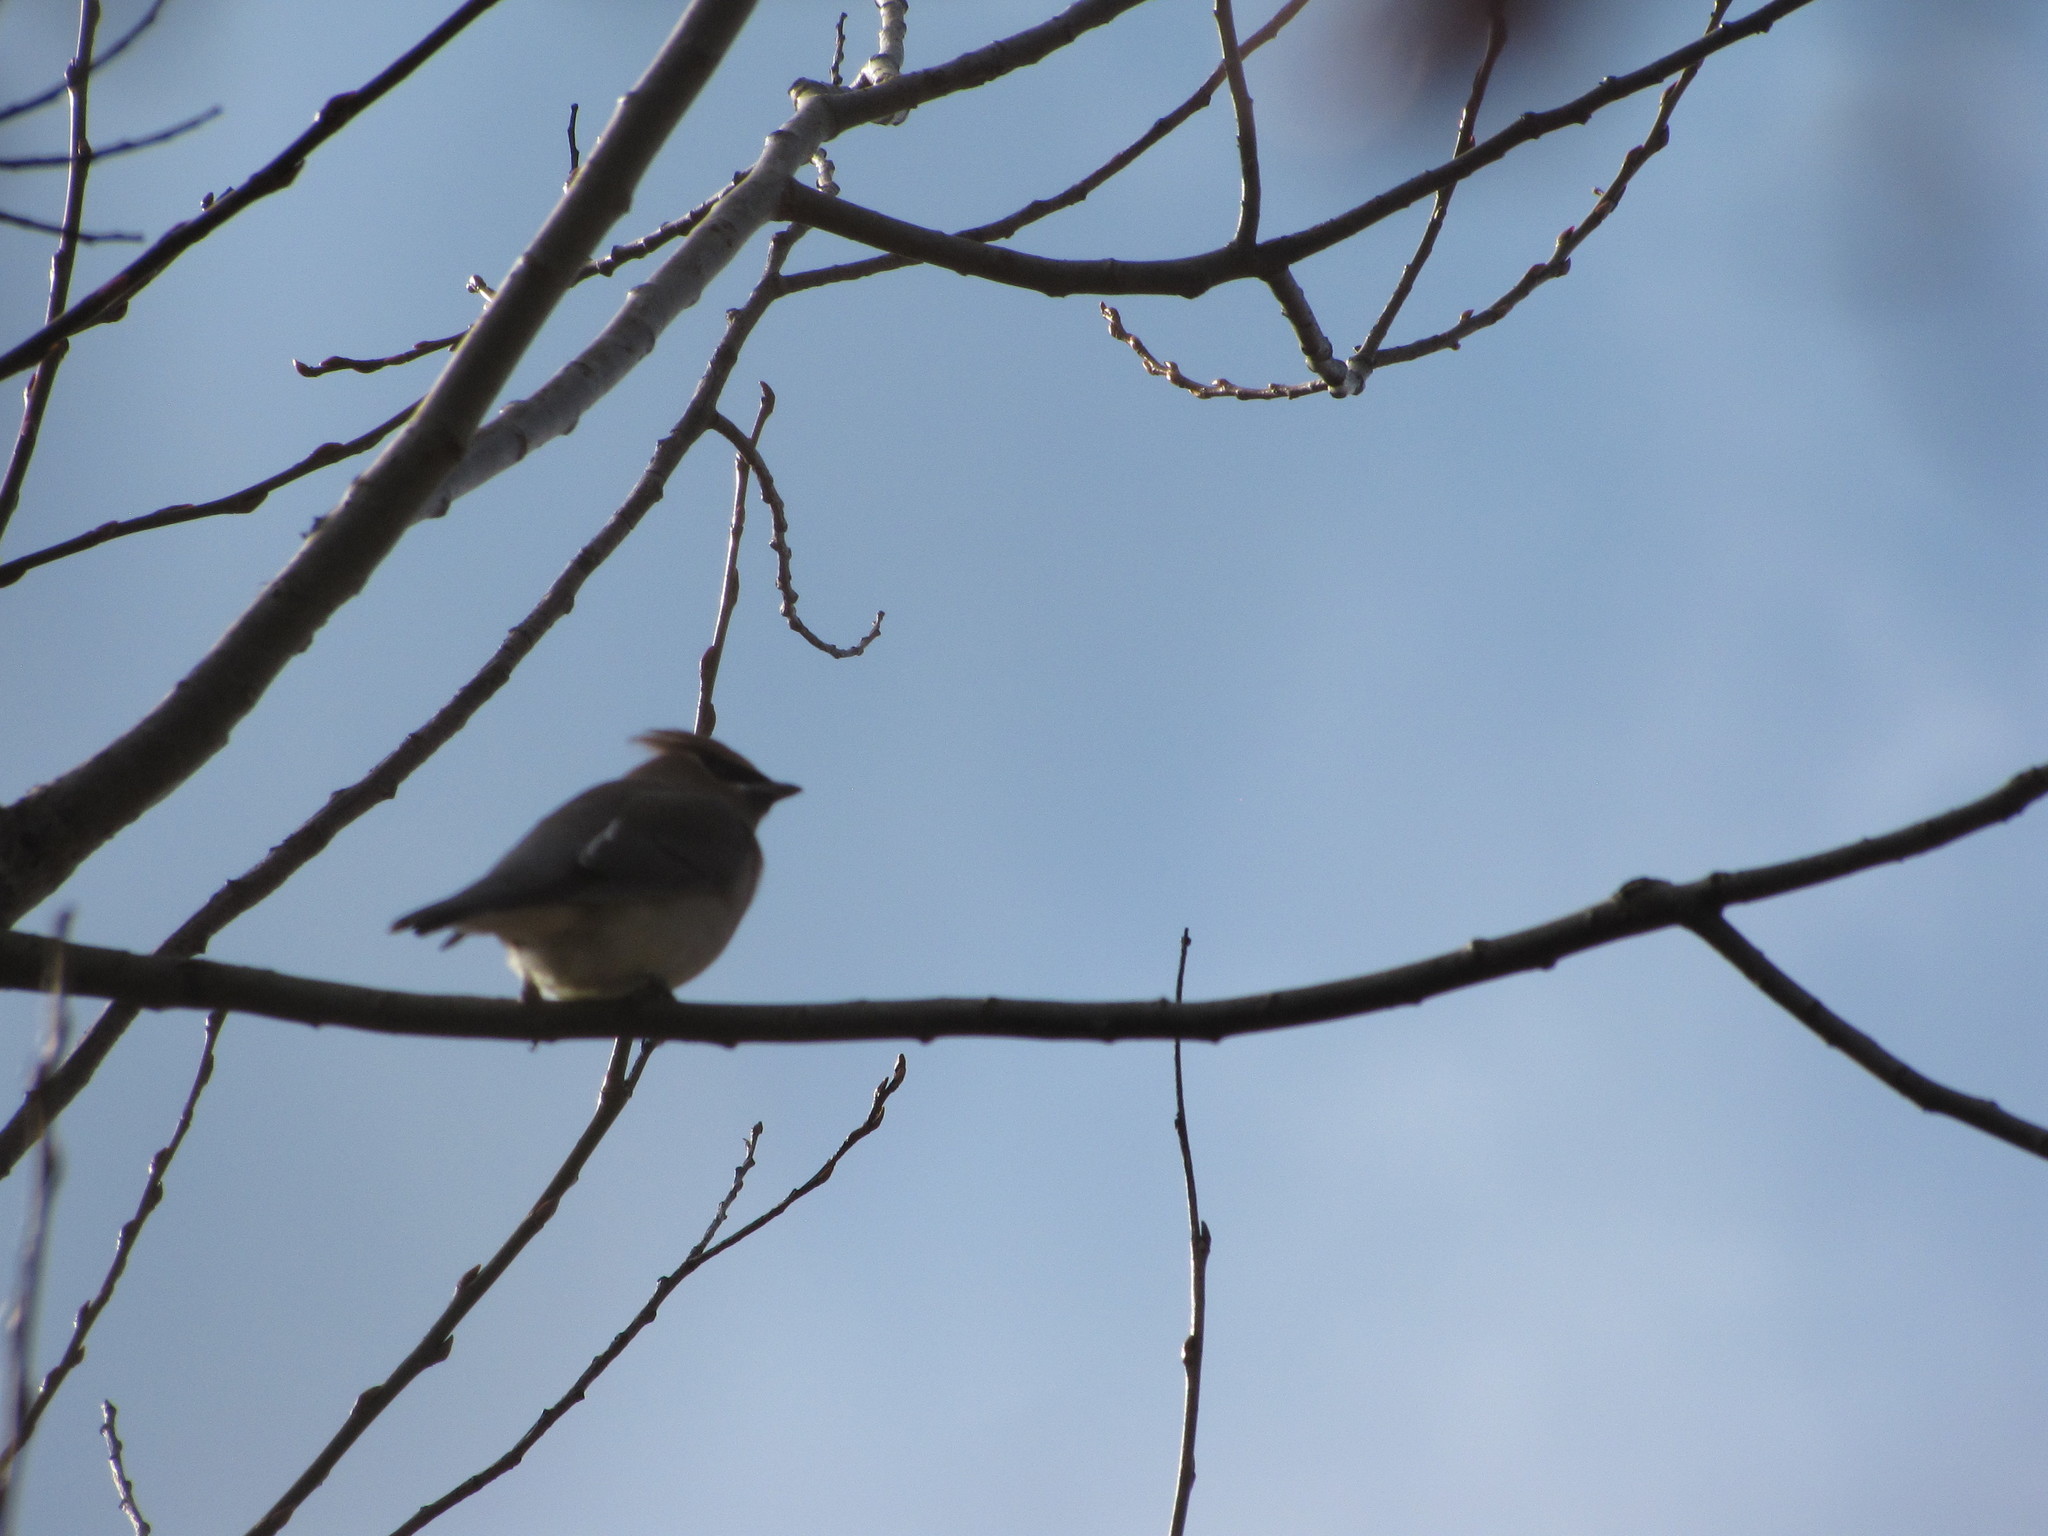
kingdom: Animalia
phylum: Chordata
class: Aves
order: Passeriformes
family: Bombycillidae
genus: Bombycilla
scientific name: Bombycilla cedrorum
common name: Cedar waxwing
